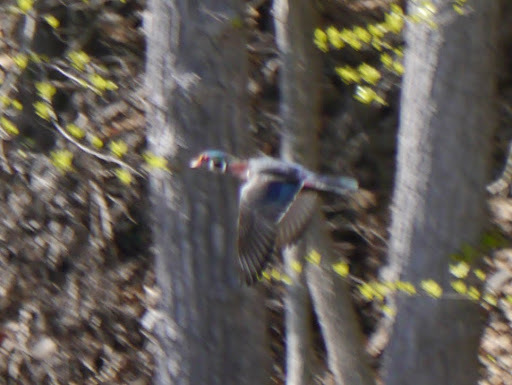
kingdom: Animalia
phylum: Chordata
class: Aves
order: Anseriformes
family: Anatidae
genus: Aix
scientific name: Aix sponsa
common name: Wood duck
